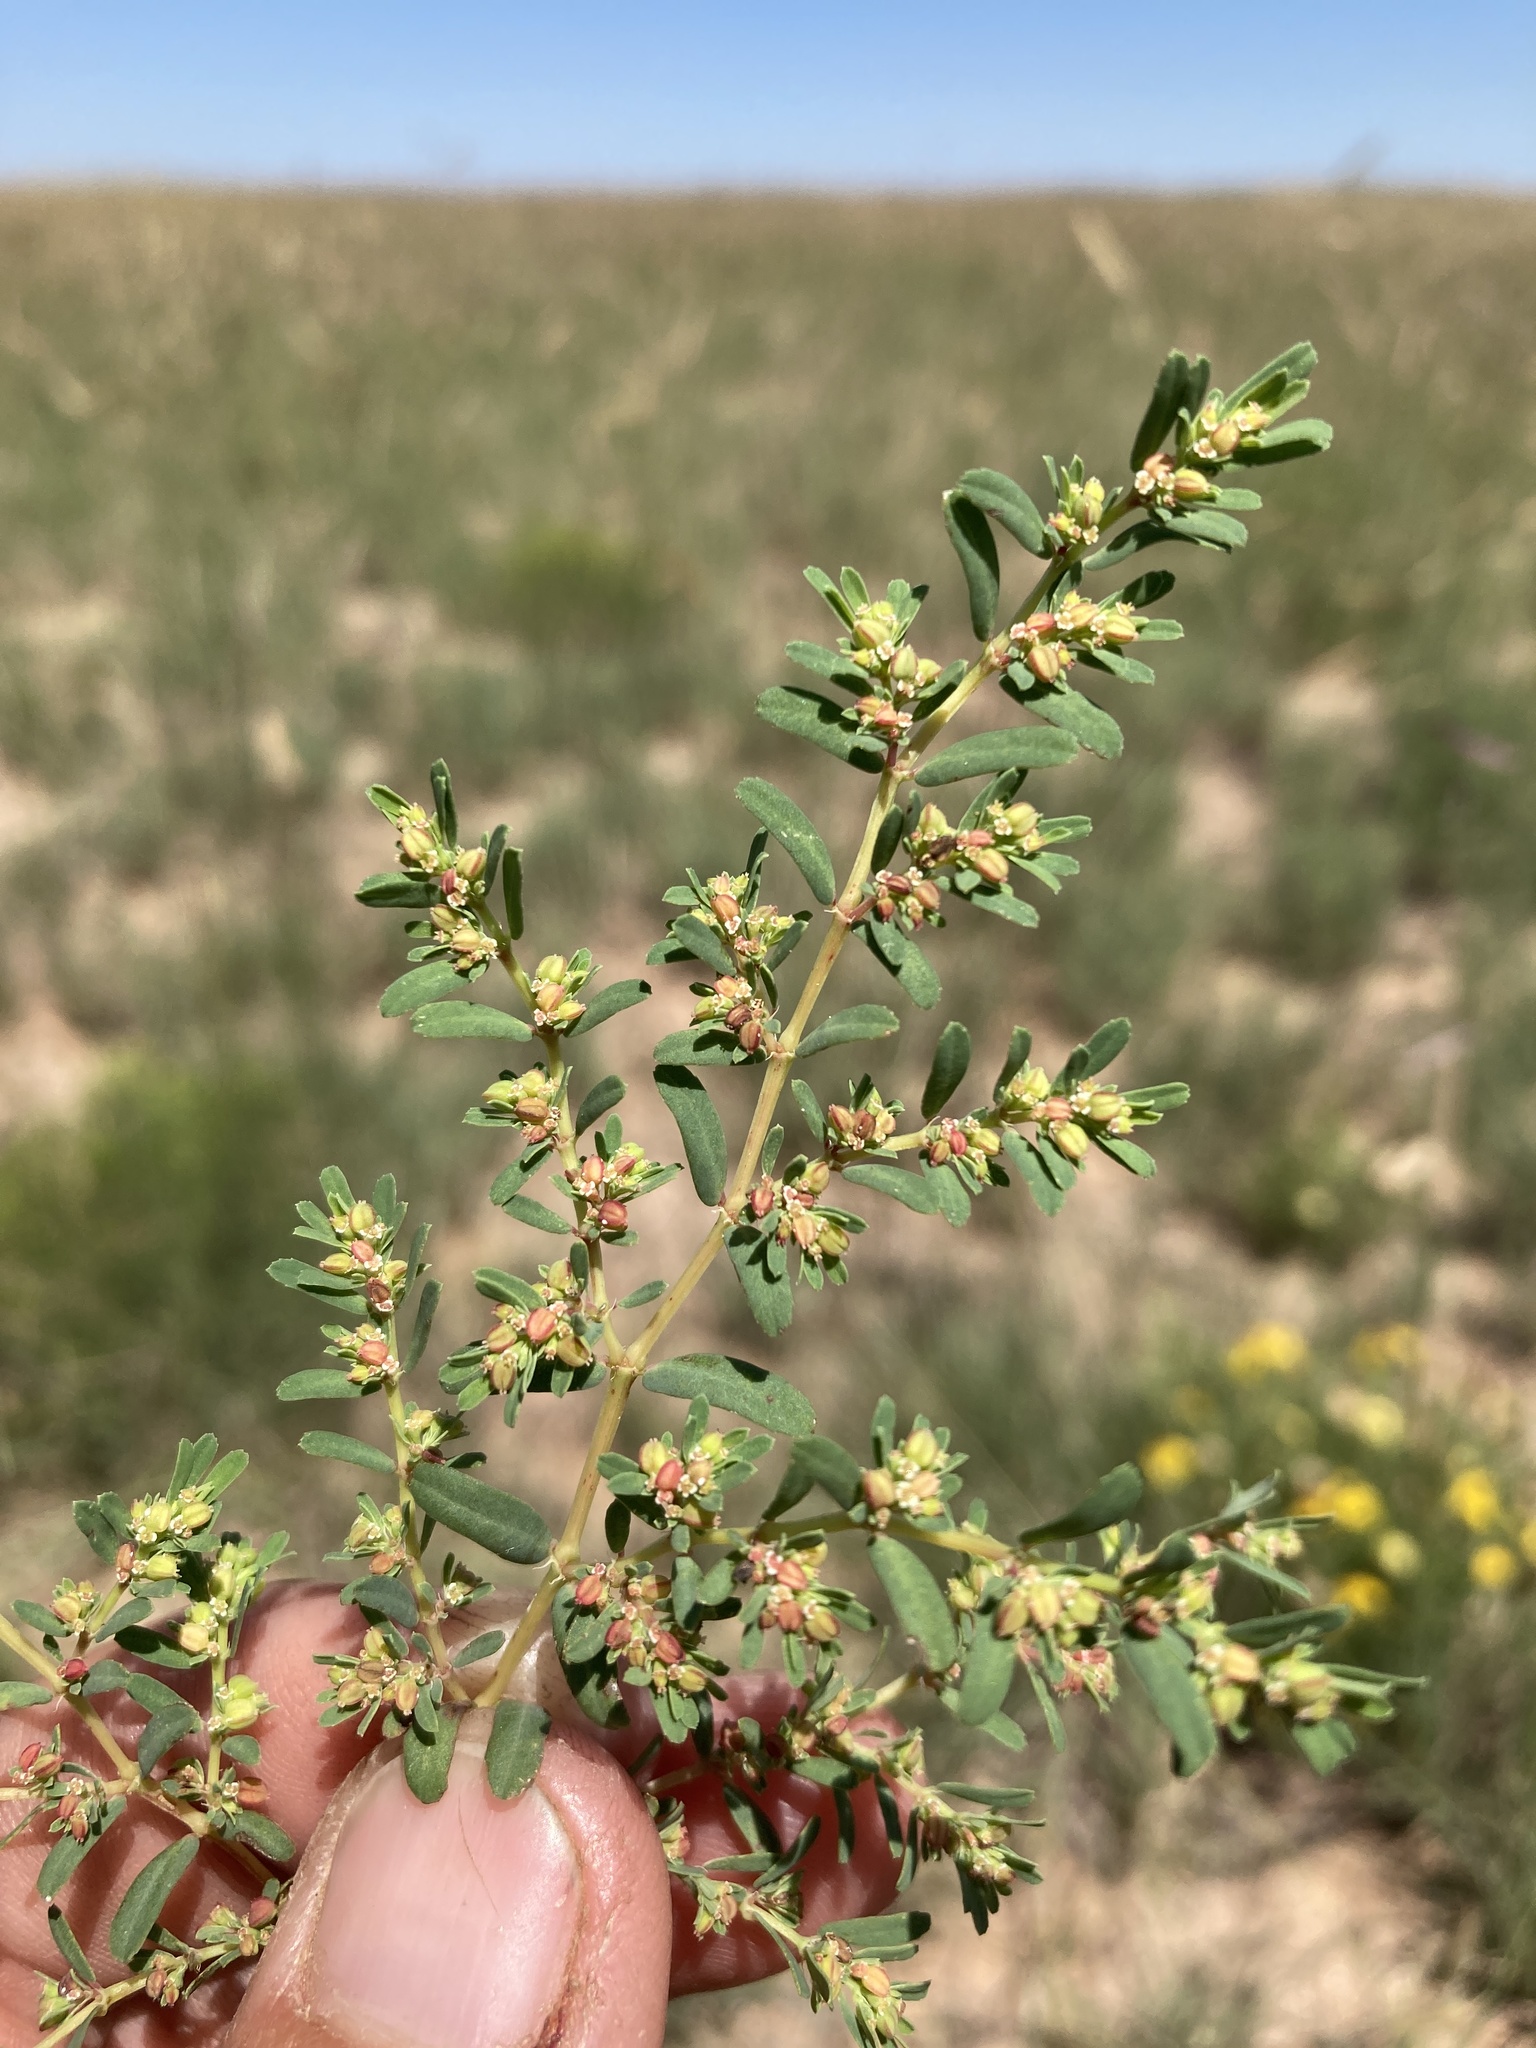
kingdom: Plantae
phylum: Tracheophyta
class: Magnoliopsida
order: Malpighiales
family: Euphorbiaceae
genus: Euphorbia
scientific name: Euphorbia serpillifolia
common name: Thyme-leaf spurge
